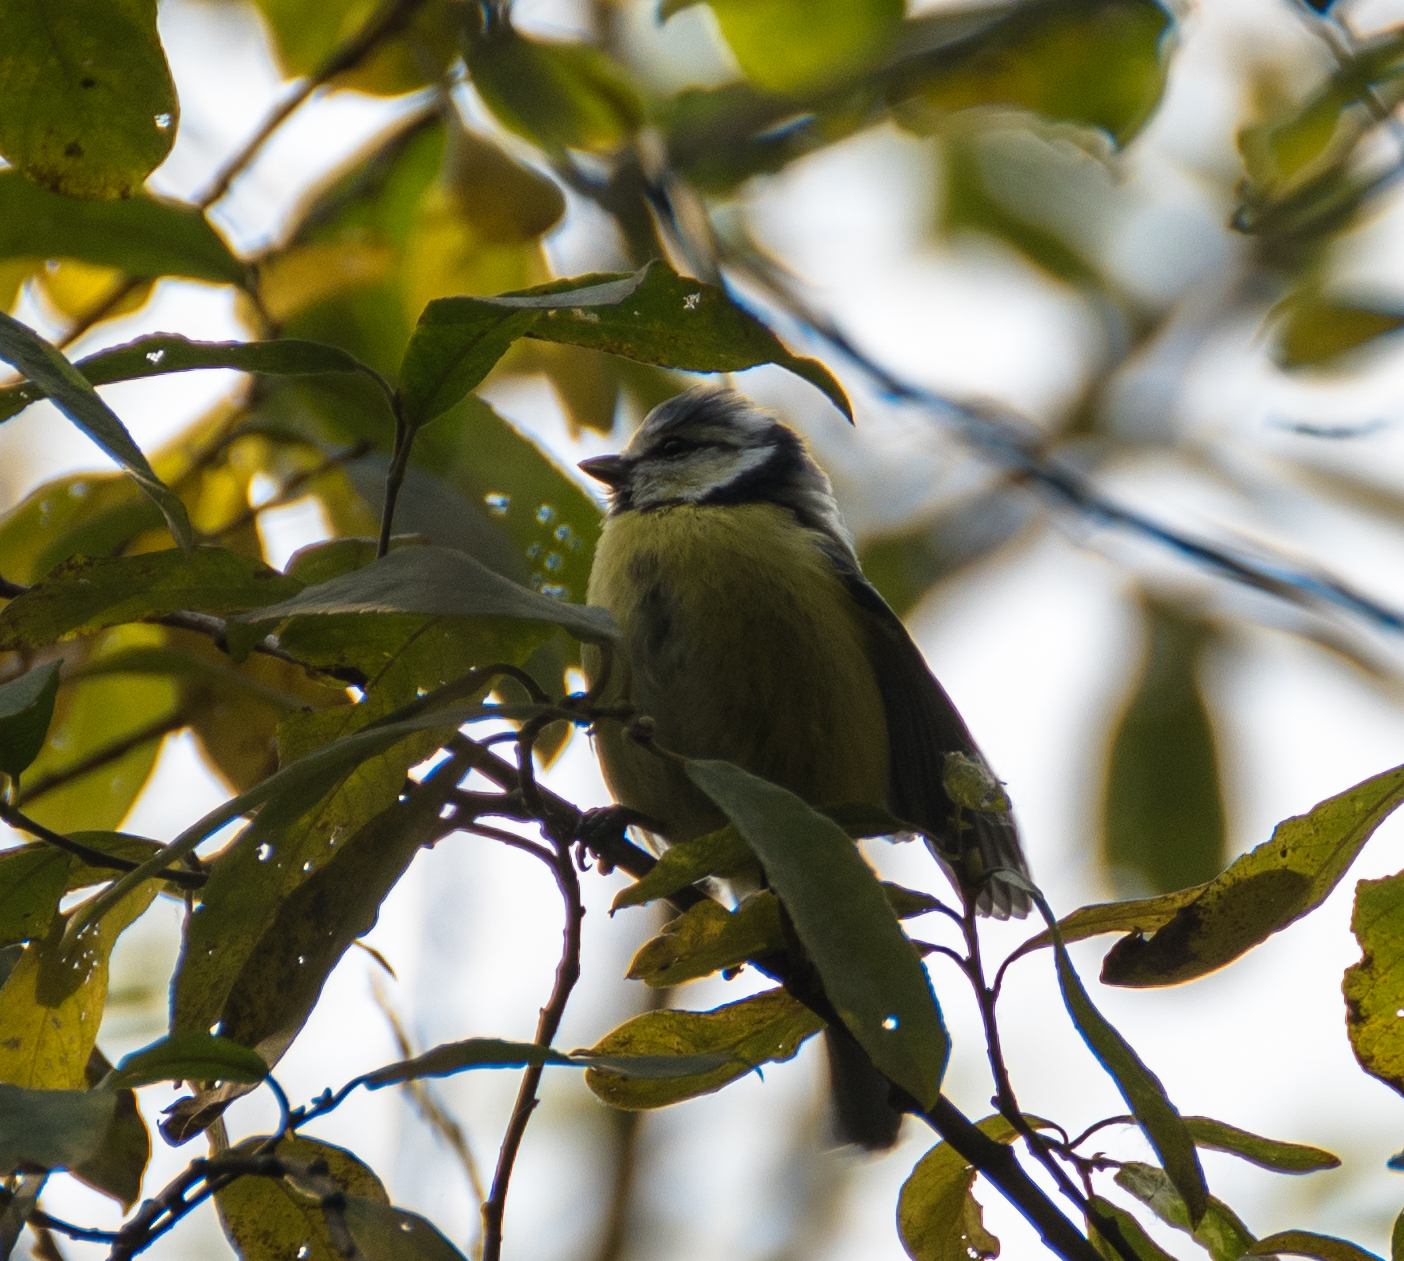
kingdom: Animalia
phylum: Chordata
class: Aves
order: Passeriformes
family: Paridae
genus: Cyanistes
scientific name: Cyanistes caeruleus
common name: Eurasian blue tit
